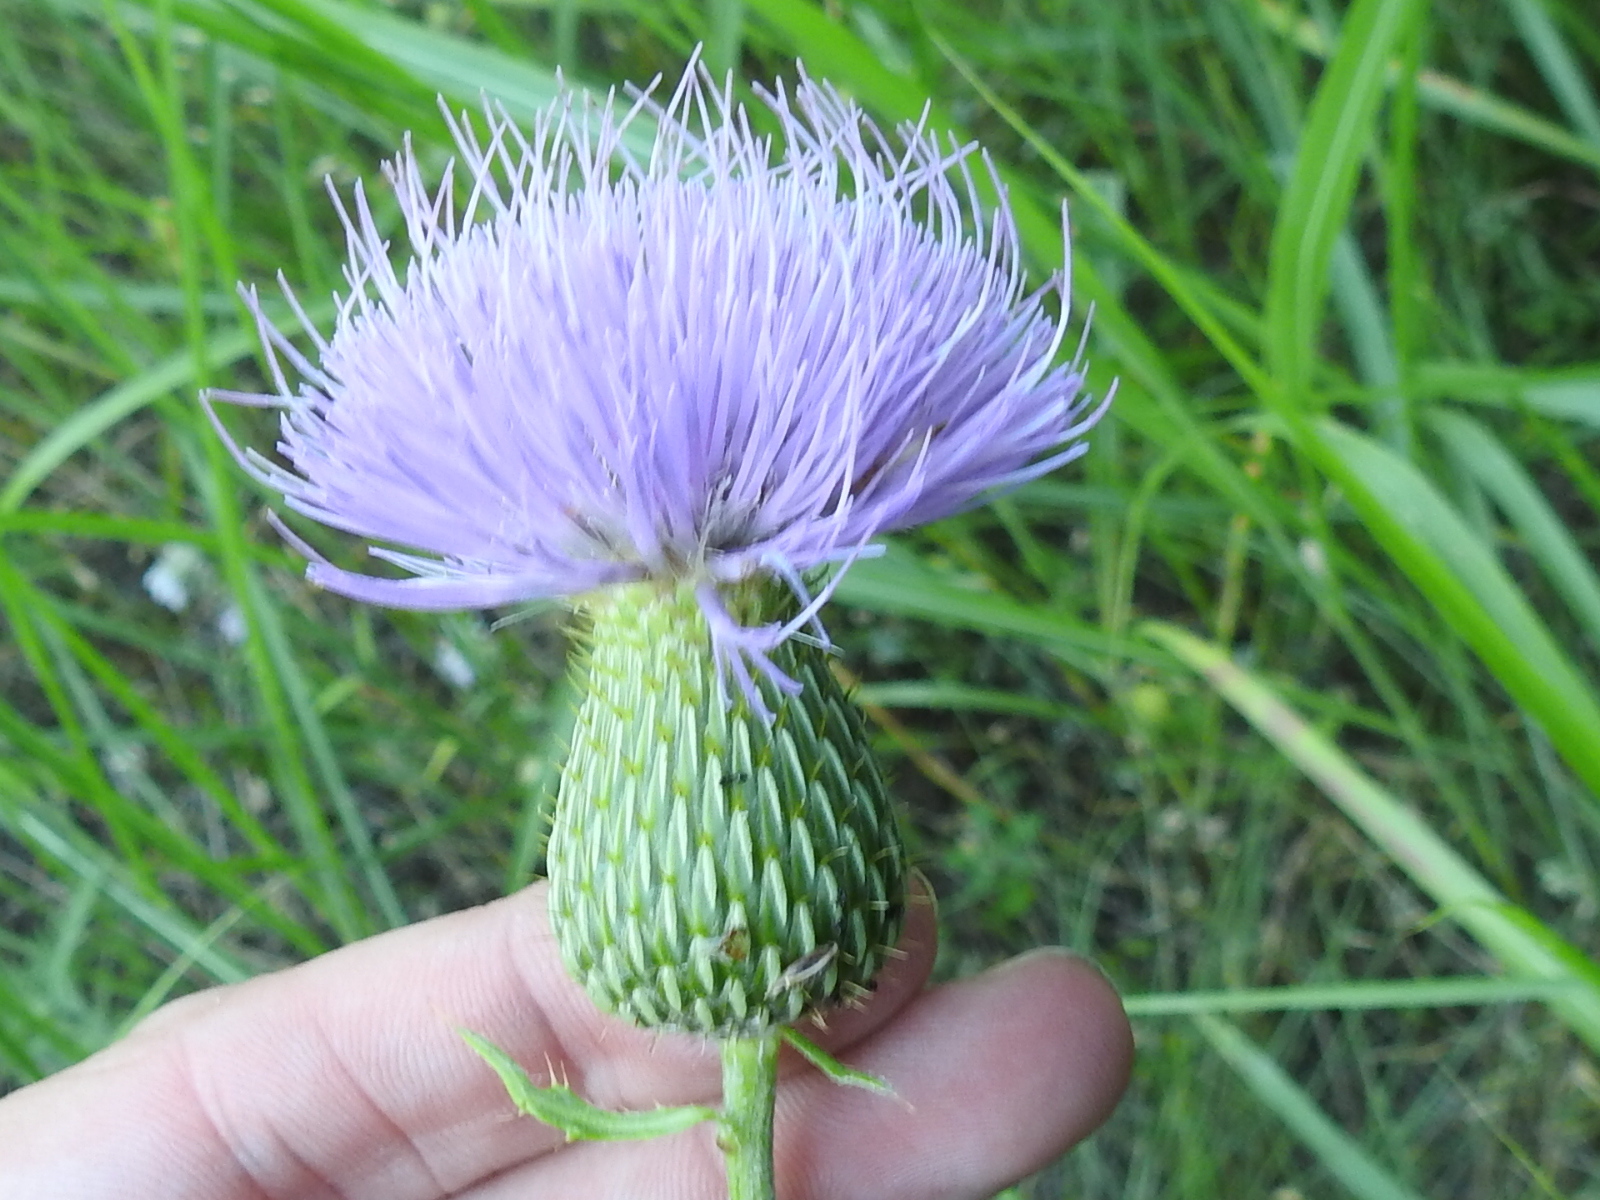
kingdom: Plantae
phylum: Tracheophyta
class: Magnoliopsida
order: Asterales
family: Asteraceae
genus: Cirsium
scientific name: Cirsium engelmannii
